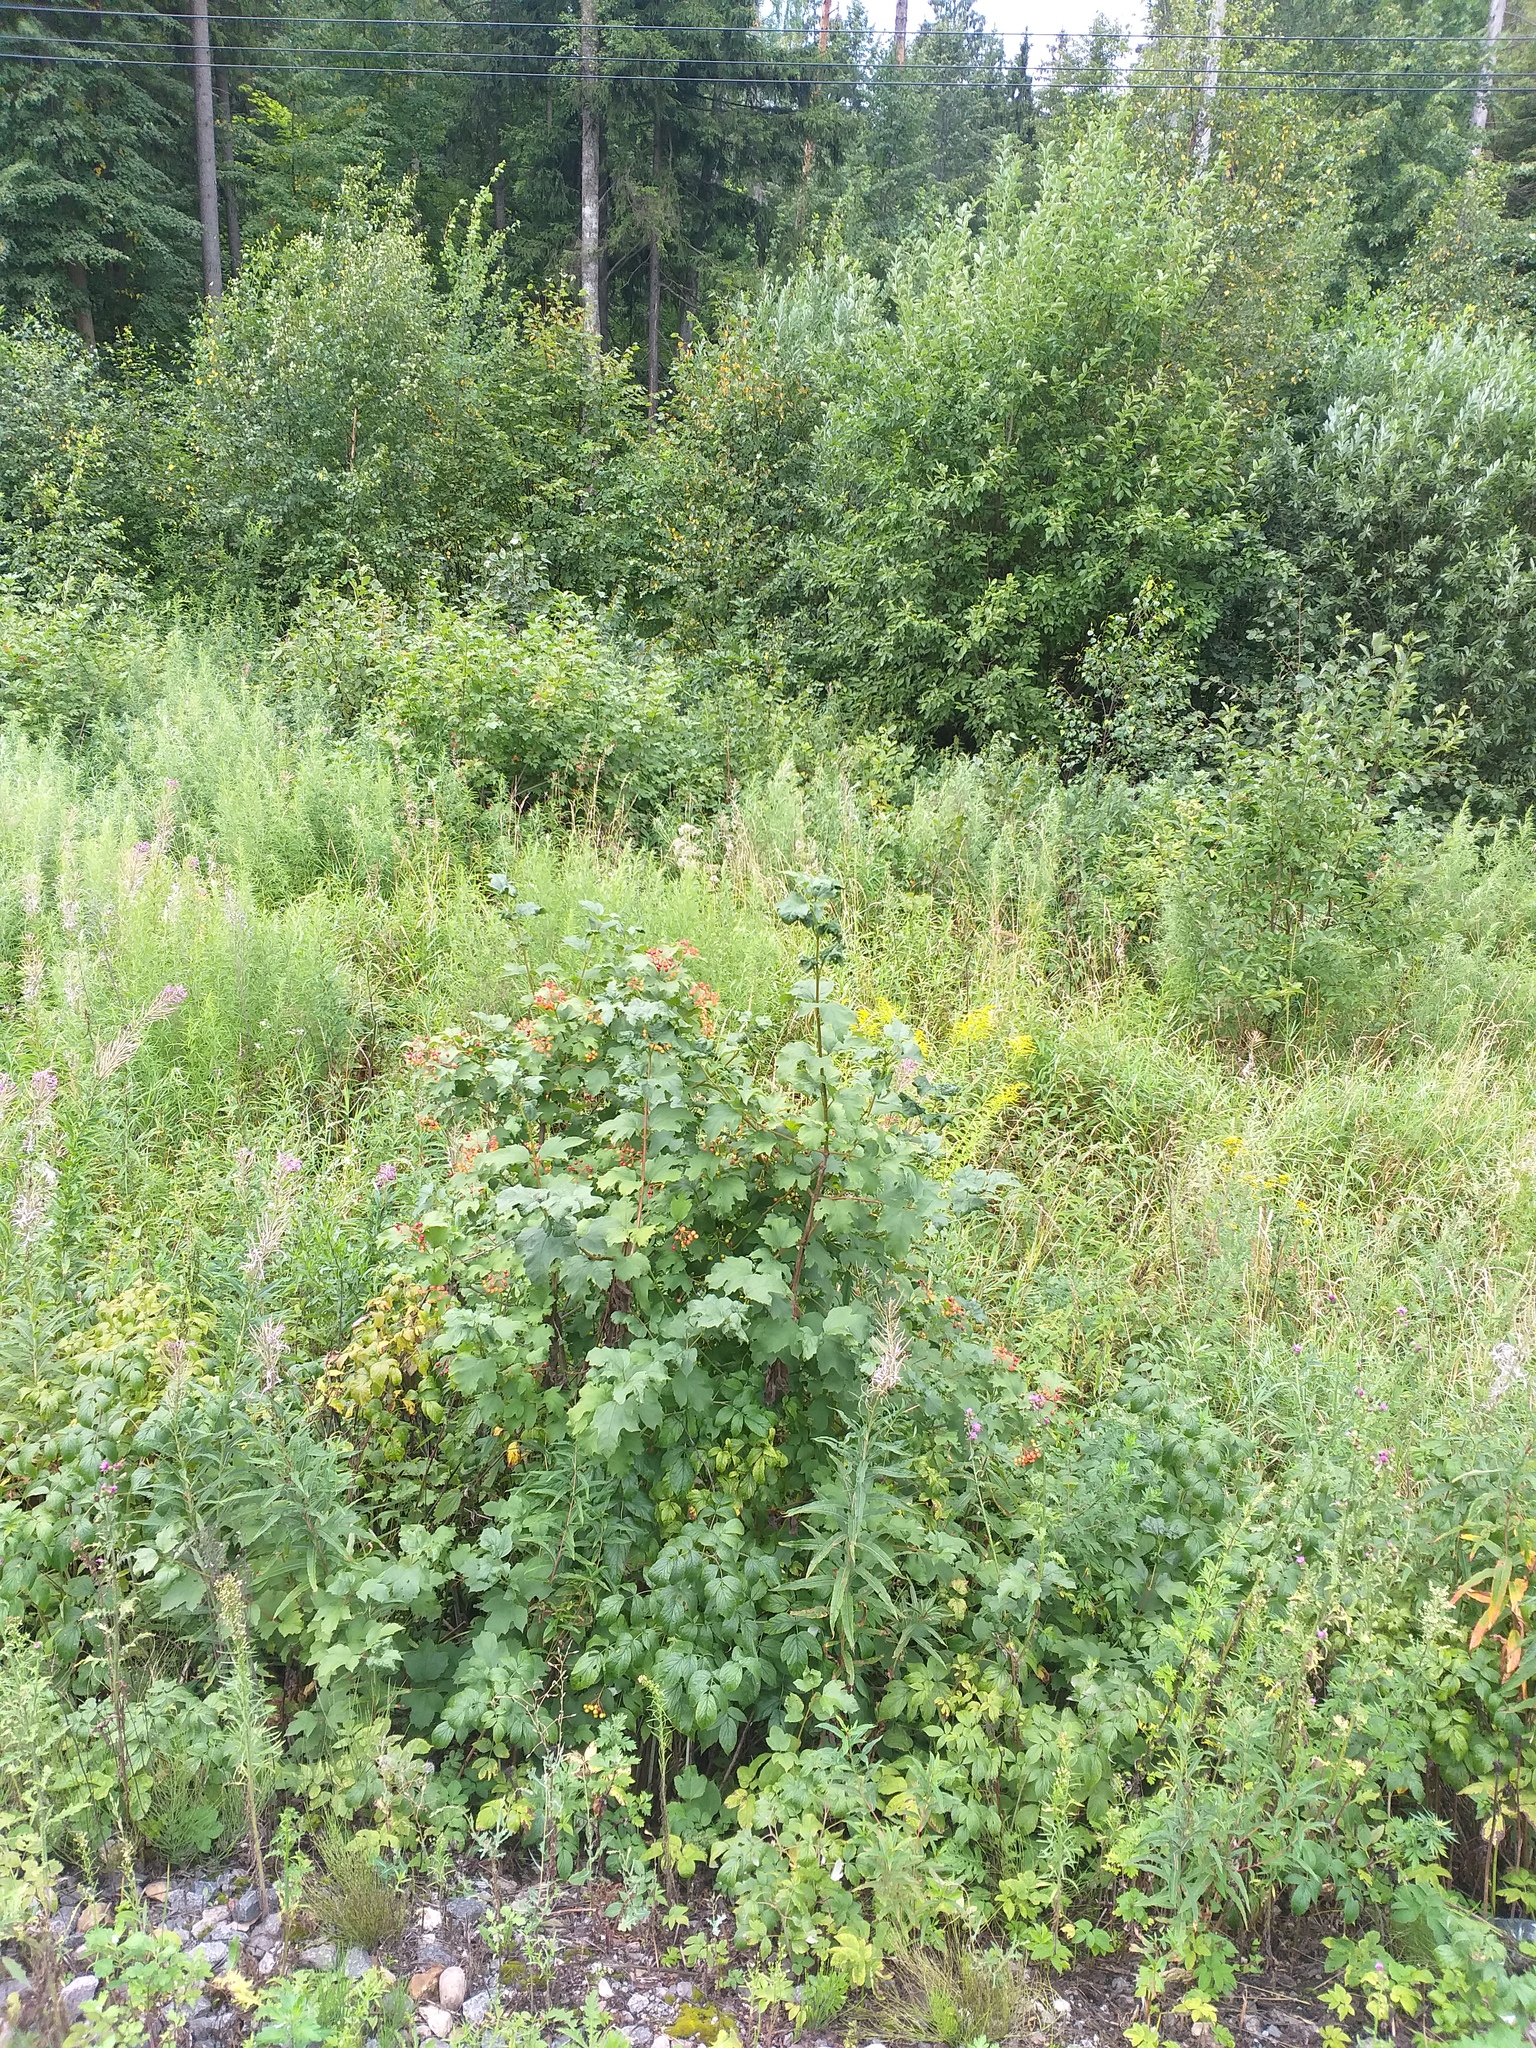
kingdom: Plantae
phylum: Tracheophyta
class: Magnoliopsida
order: Dipsacales
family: Viburnaceae
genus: Viburnum
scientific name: Viburnum opulus
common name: Guelder-rose
